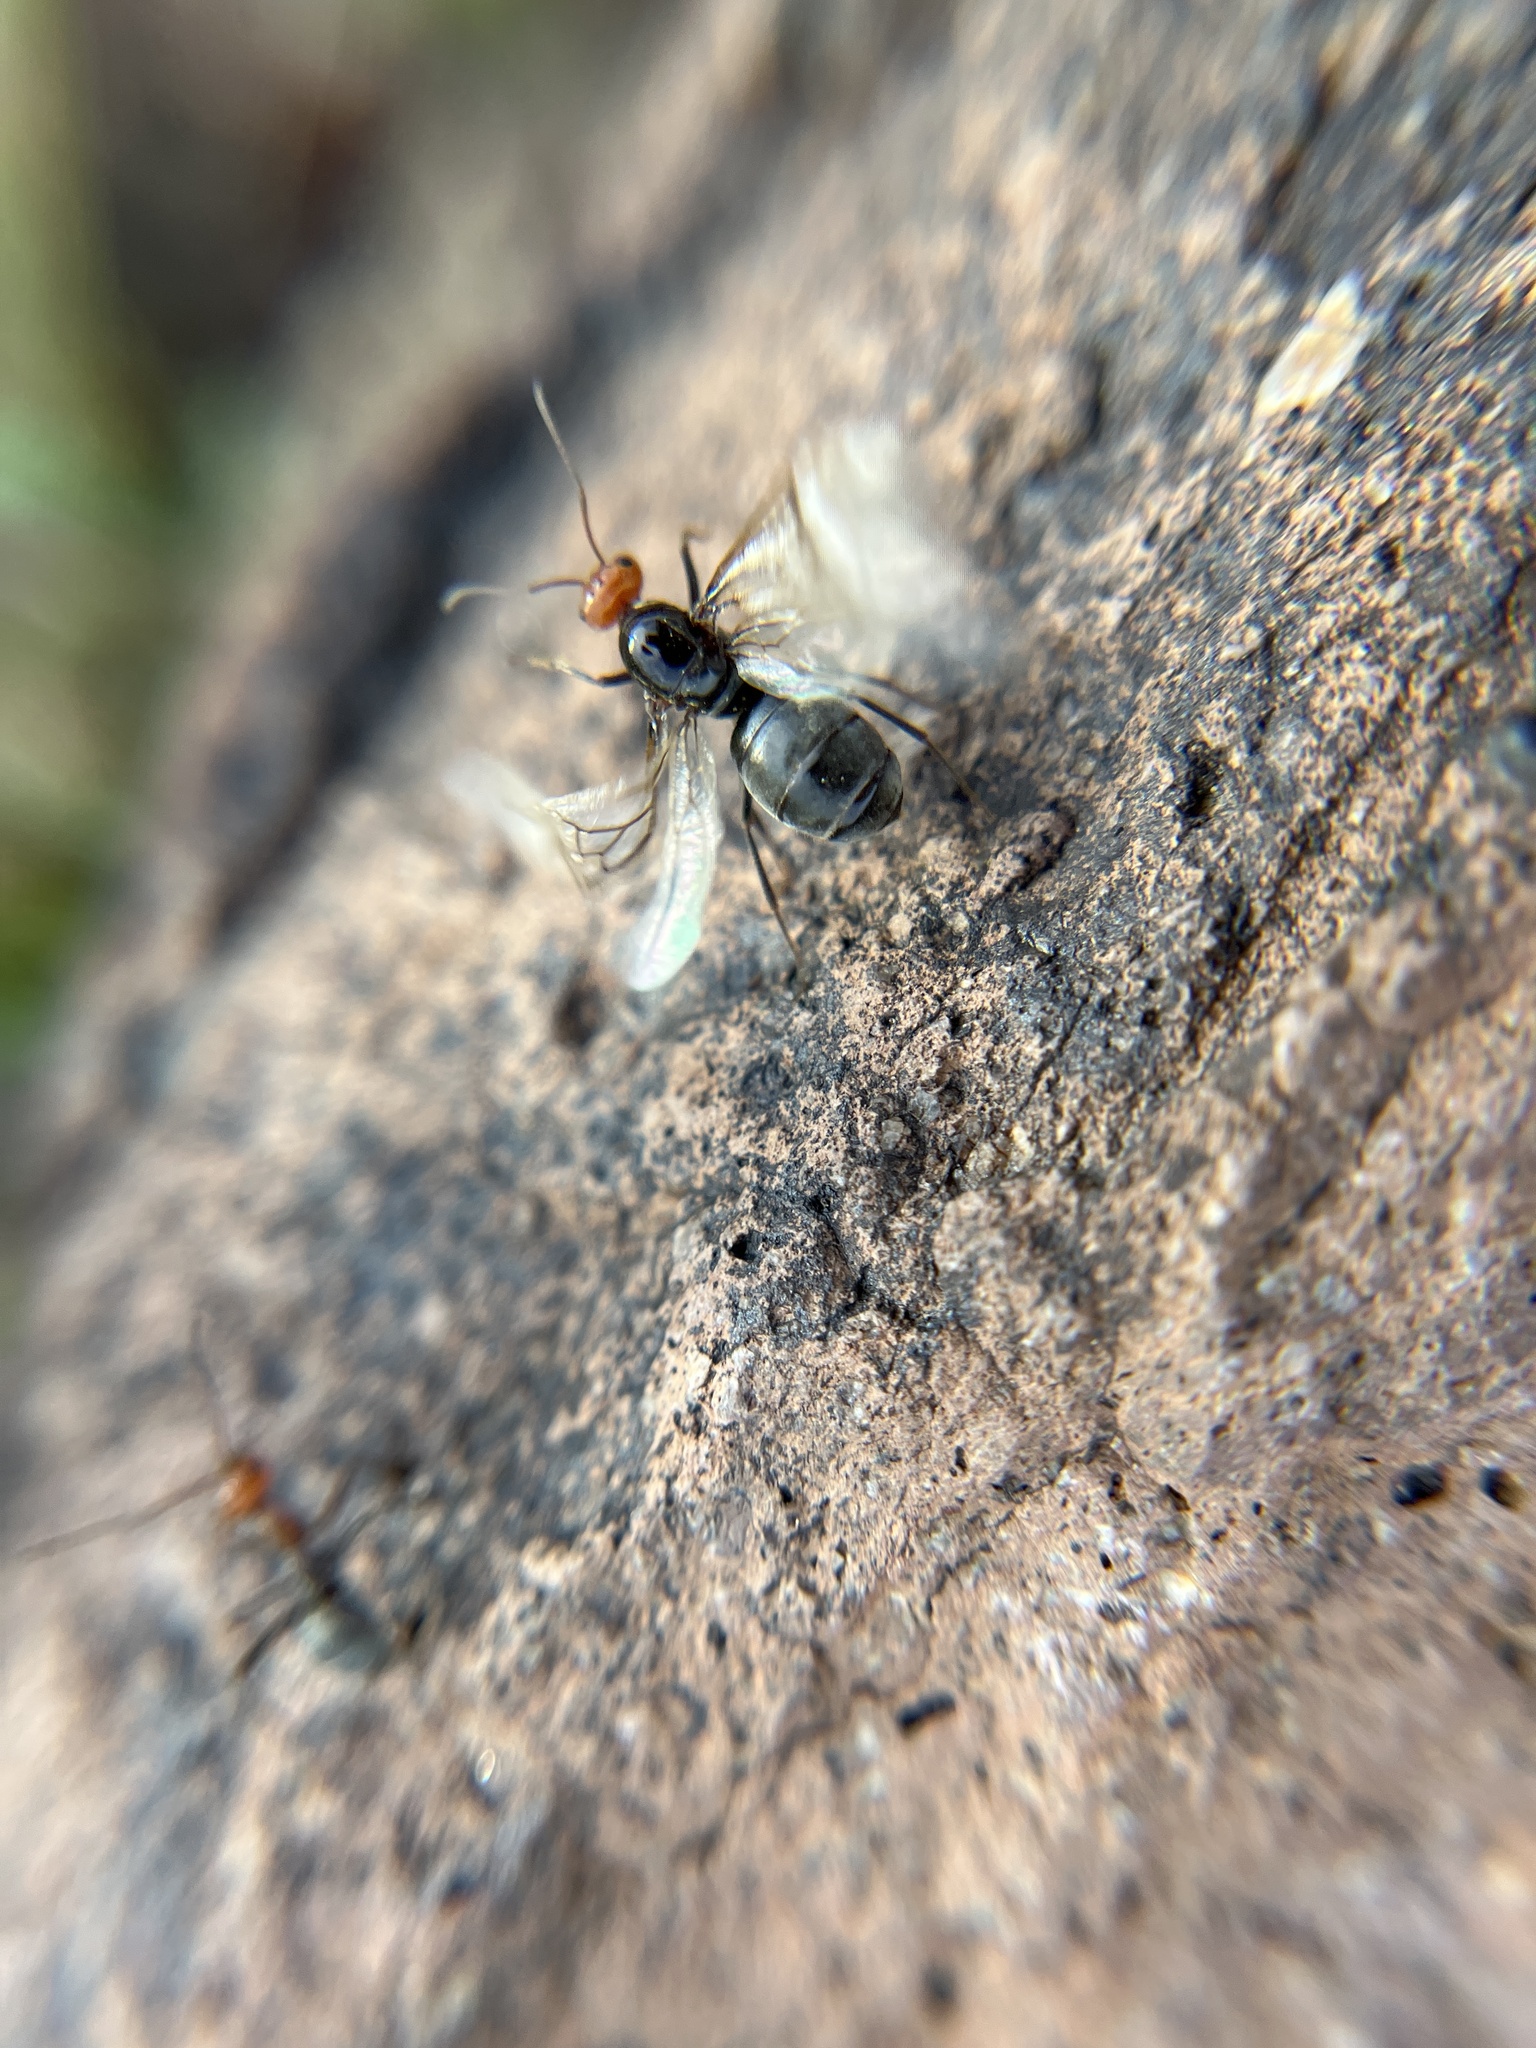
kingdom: Animalia
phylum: Arthropoda
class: Insecta
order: Hymenoptera
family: Formicidae
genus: Myrmecocystus
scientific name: Myrmecocystus placodops
